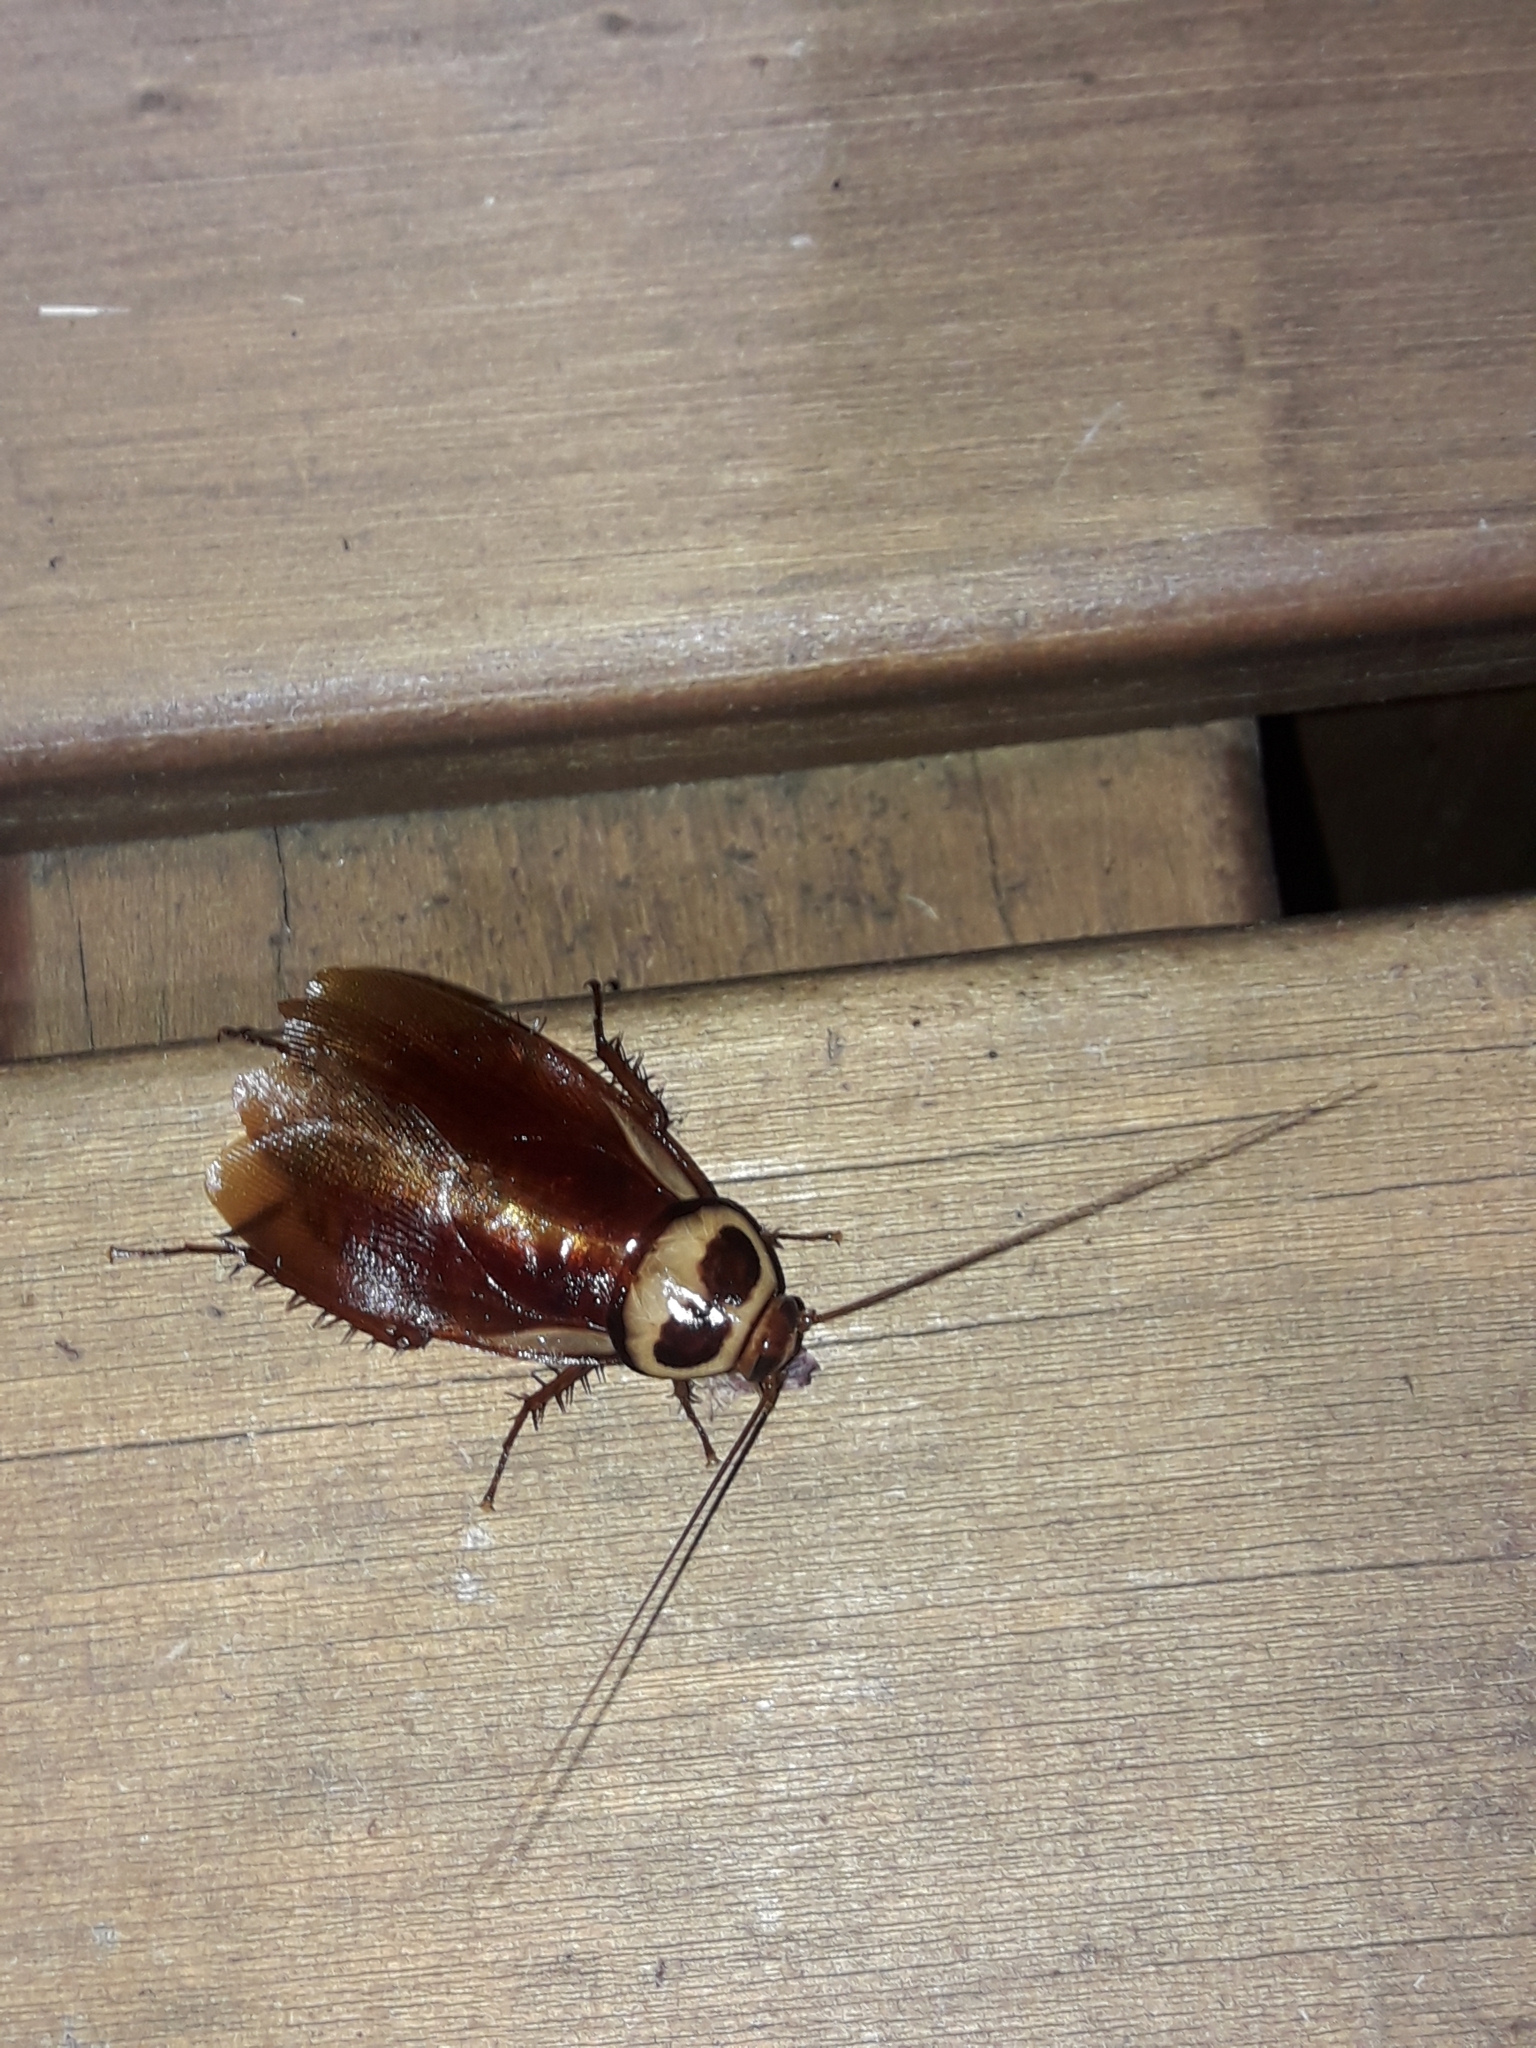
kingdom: Animalia
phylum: Arthropoda
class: Insecta
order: Blattodea
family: Blattidae
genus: Periplaneta
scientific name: Periplaneta australasiae
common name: Australian cockroach
